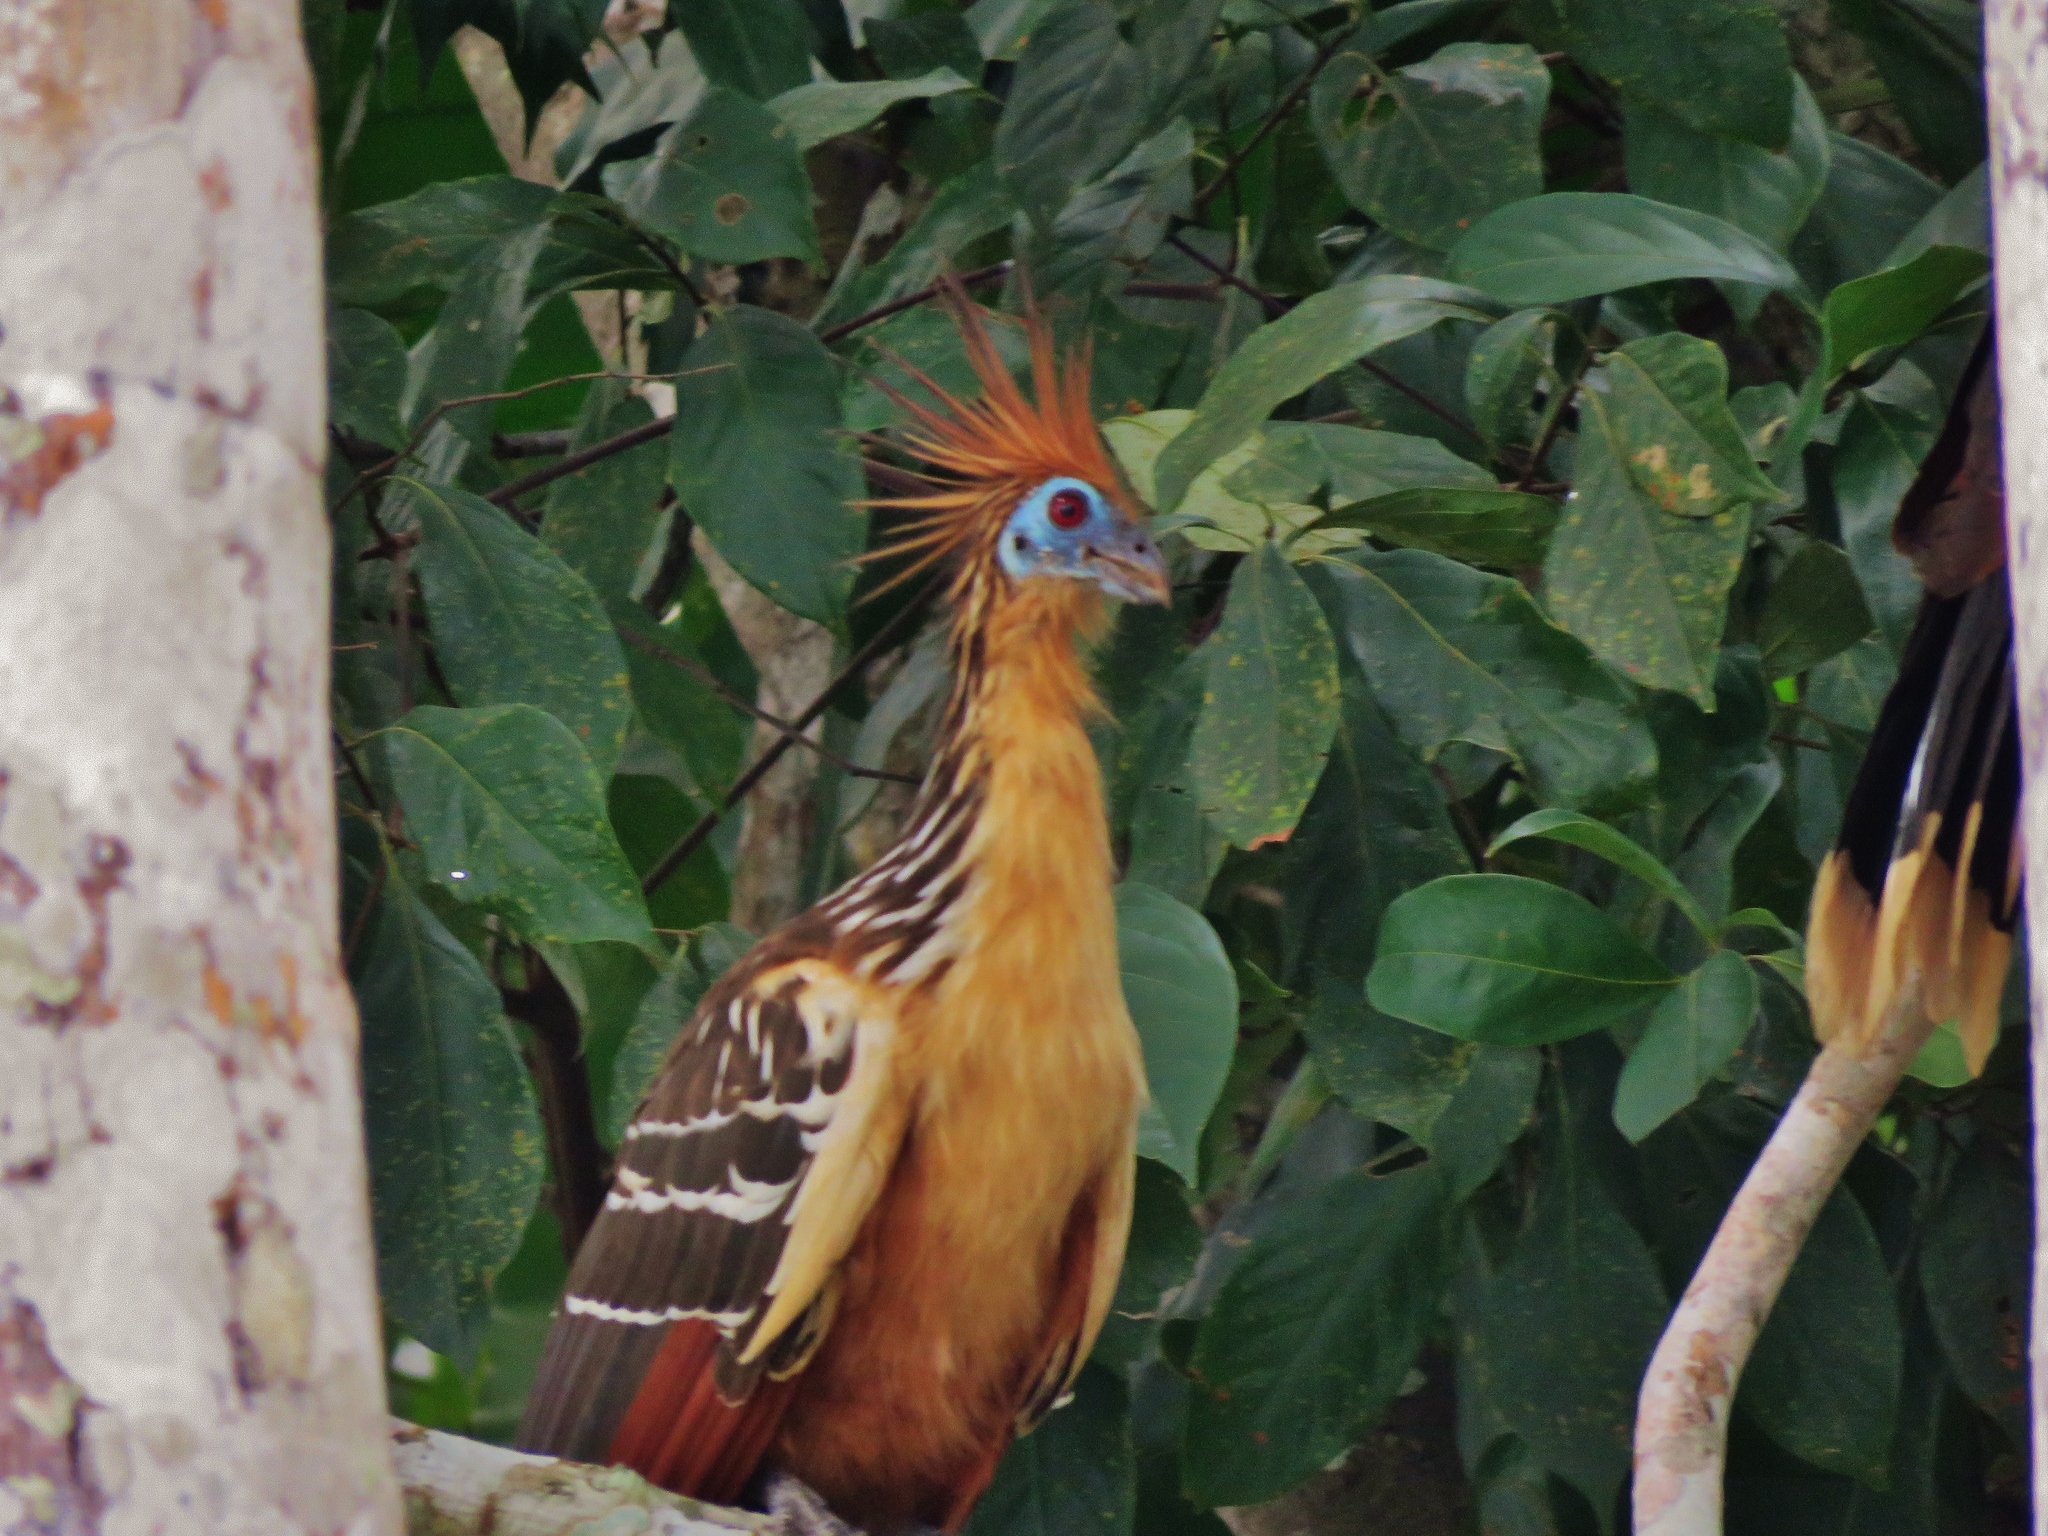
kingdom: Animalia
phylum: Chordata
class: Aves
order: Opisthocomiformes
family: Opisthocomidae
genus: Opisthocomus
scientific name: Opisthocomus hoazin
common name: Hoatzin
